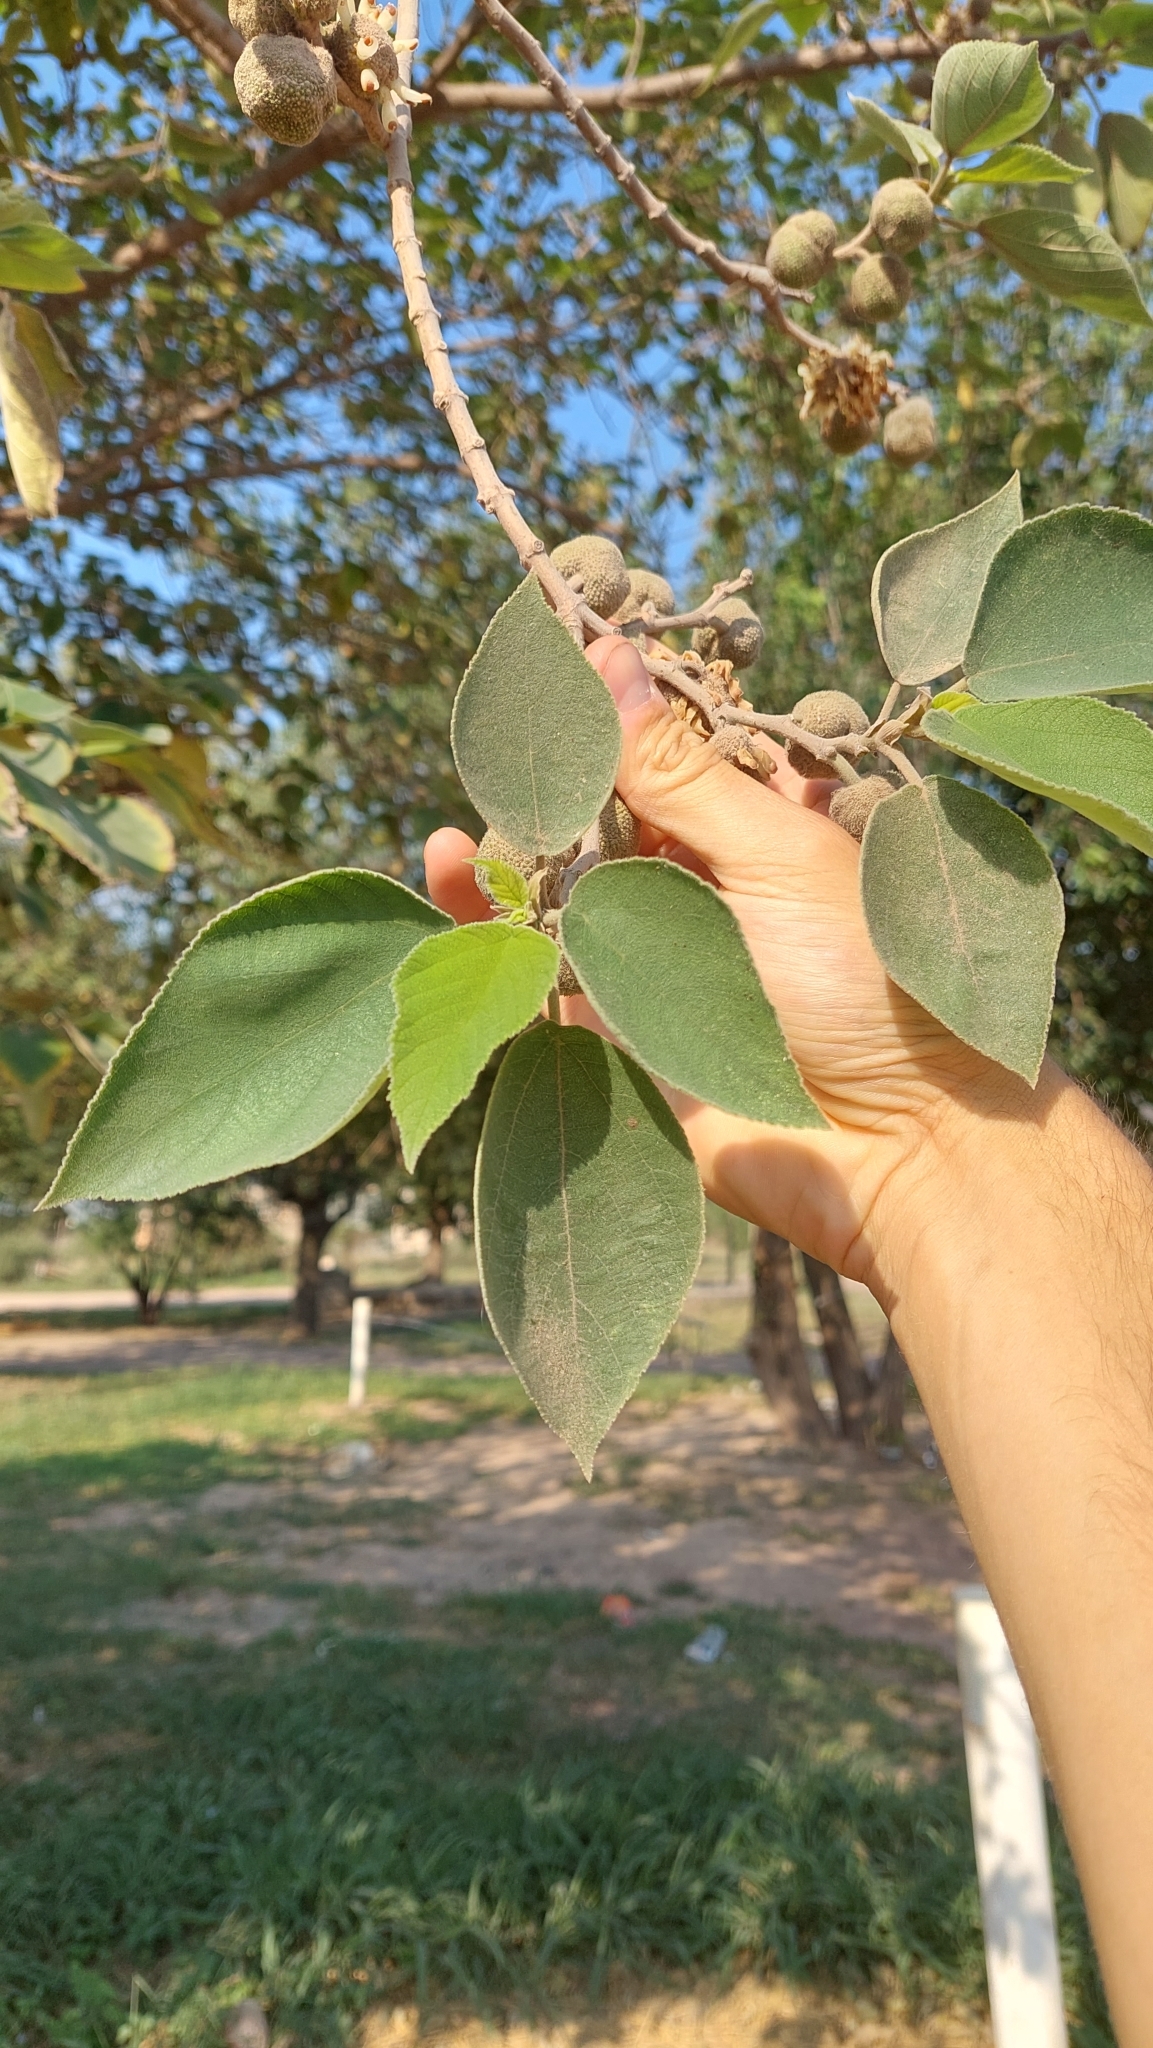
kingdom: Plantae
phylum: Tracheophyta
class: Magnoliopsida
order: Rosales
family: Moraceae
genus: Broussonetia
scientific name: Broussonetia papyrifera
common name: Paper mulberry
